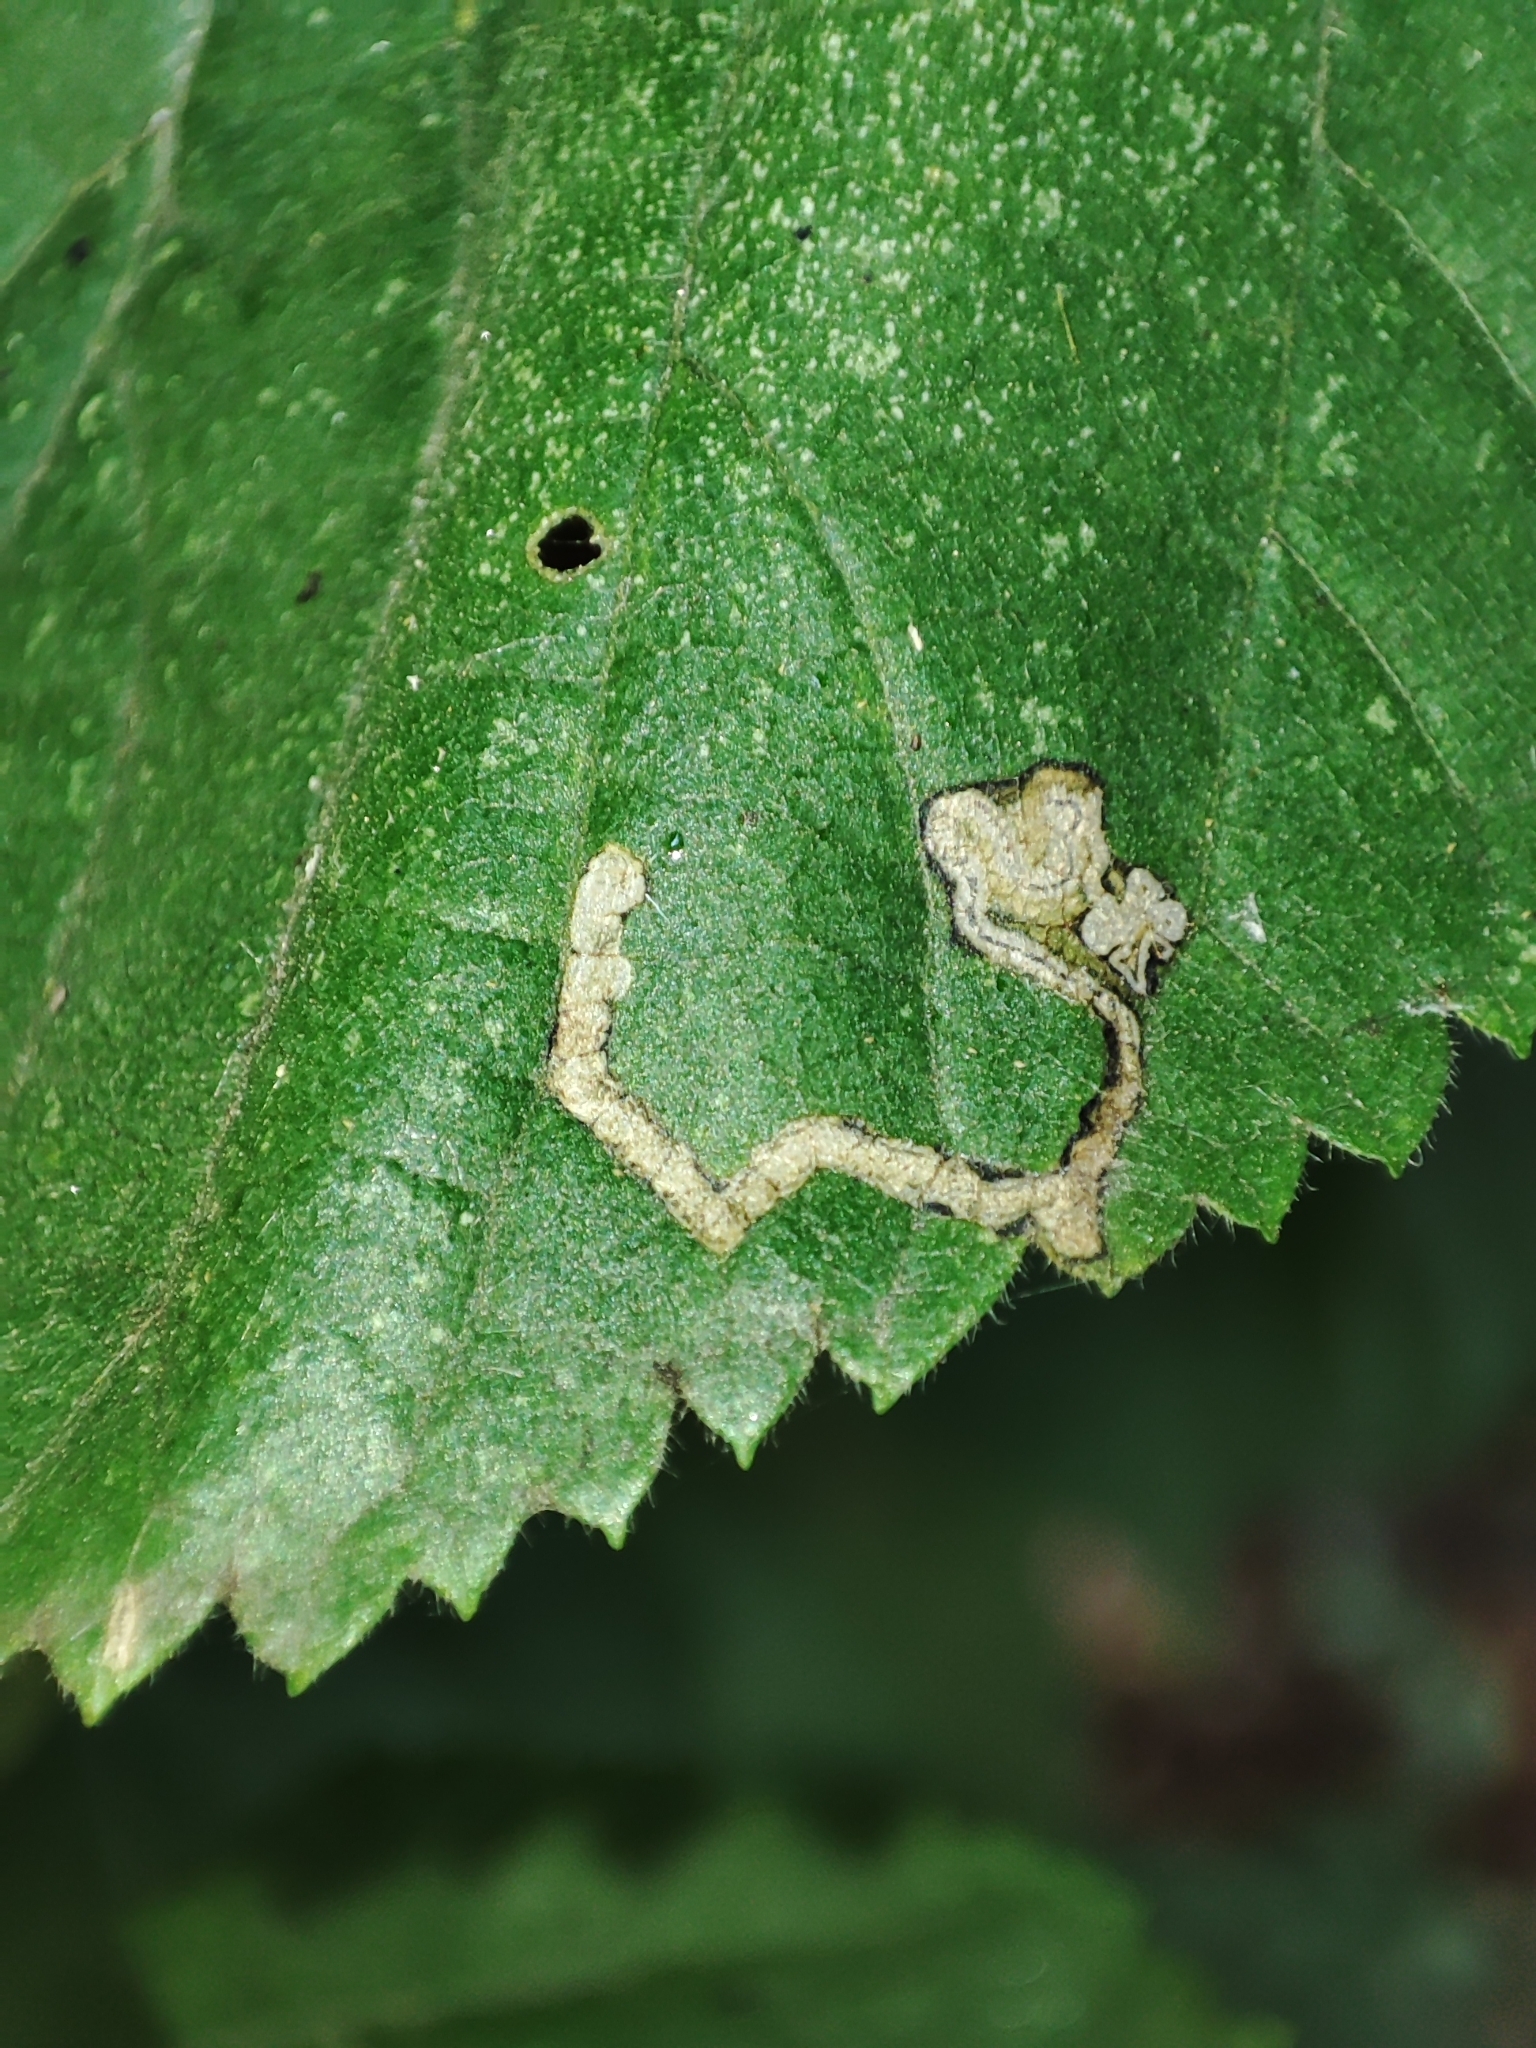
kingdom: Animalia
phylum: Arthropoda
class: Insecta
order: Lepidoptera
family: Nepticulidae
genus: Stigmella
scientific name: Stigmella tiliae
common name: Lime pigmy
